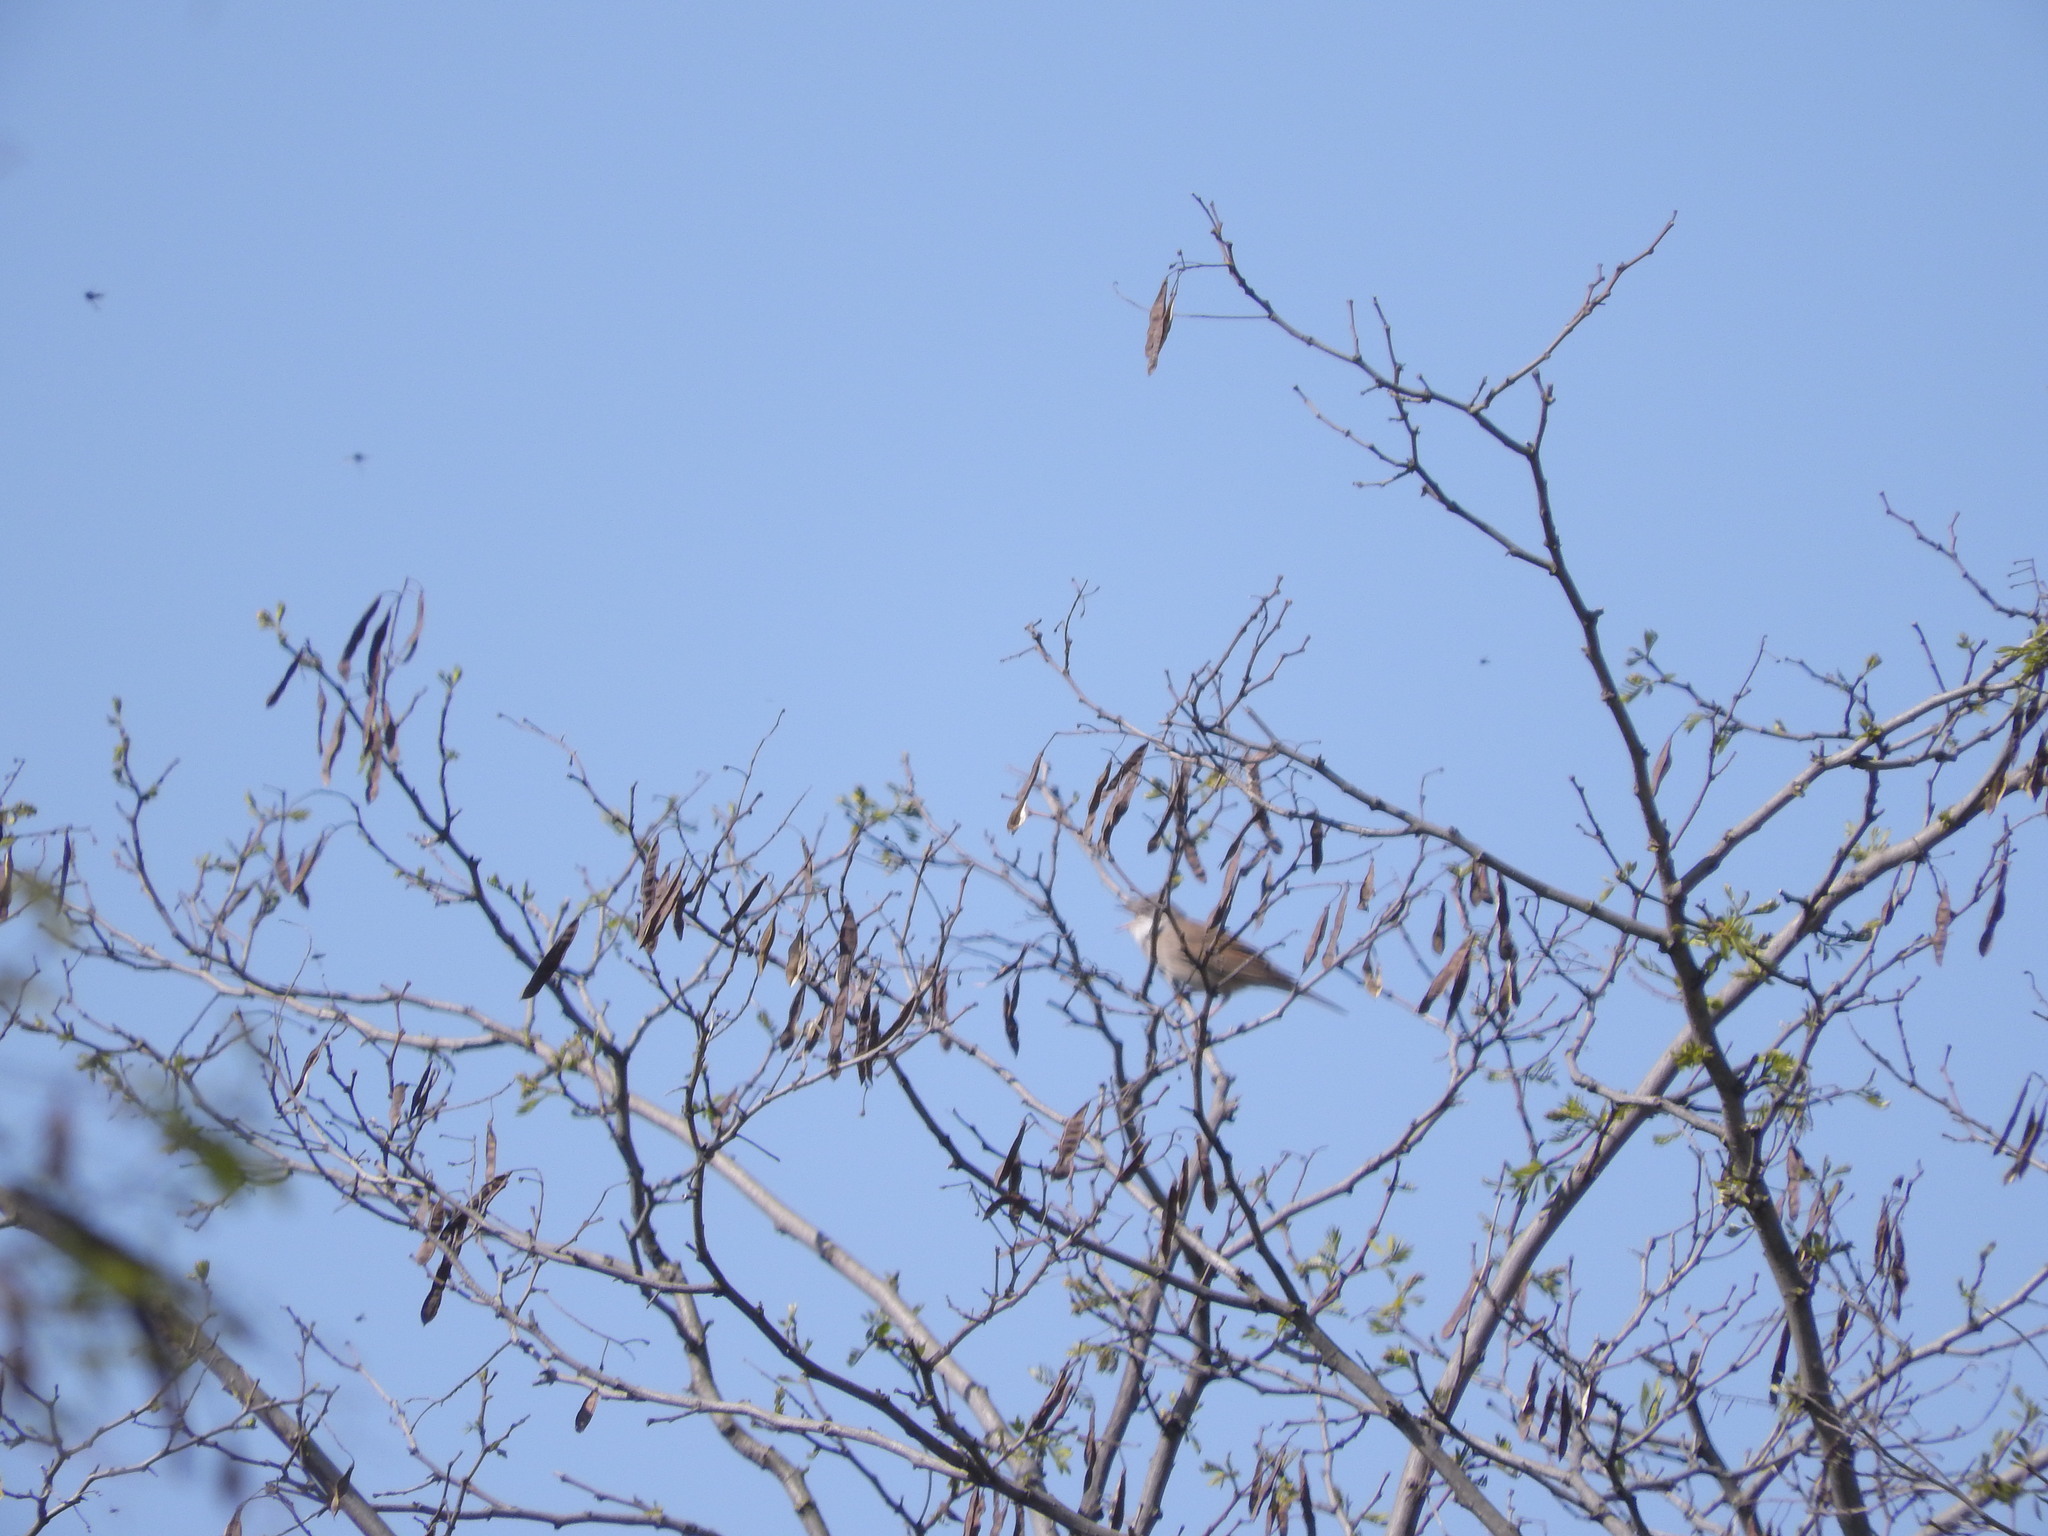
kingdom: Plantae
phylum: Tracheophyta
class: Magnoliopsida
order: Fabales
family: Fabaceae
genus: Robinia
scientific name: Robinia pseudoacacia
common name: Black locust
